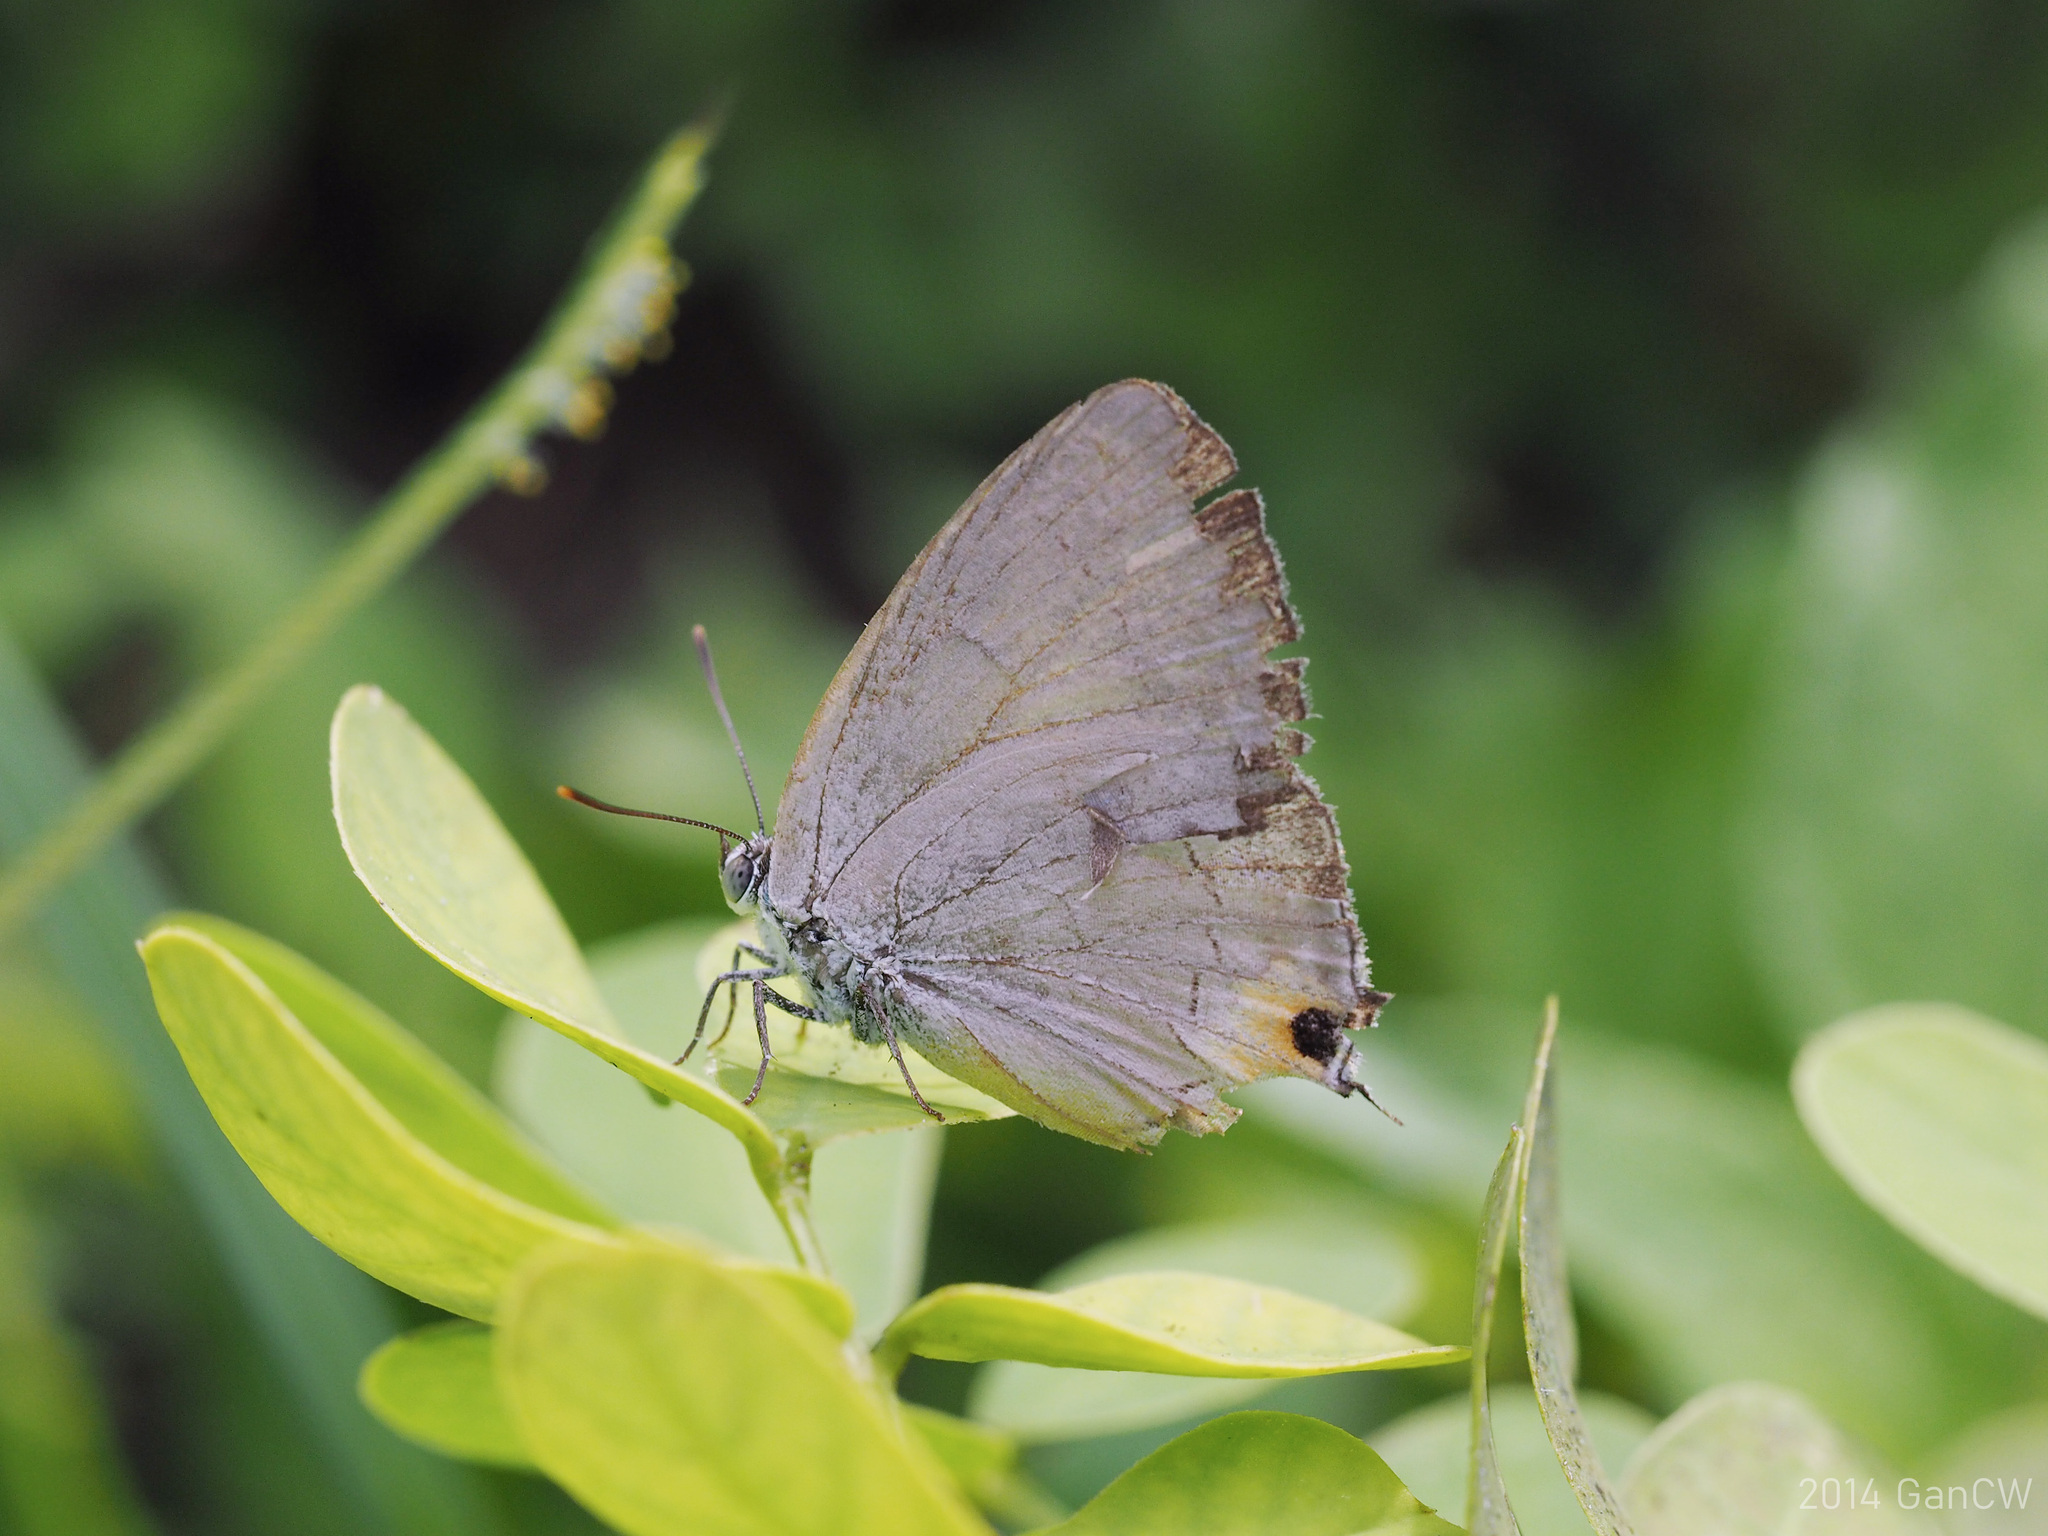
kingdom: Animalia
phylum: Arthropoda
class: Insecta
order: Lepidoptera
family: Lycaenidae
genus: Pratapa
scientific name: Pratapa deva
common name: White royal
